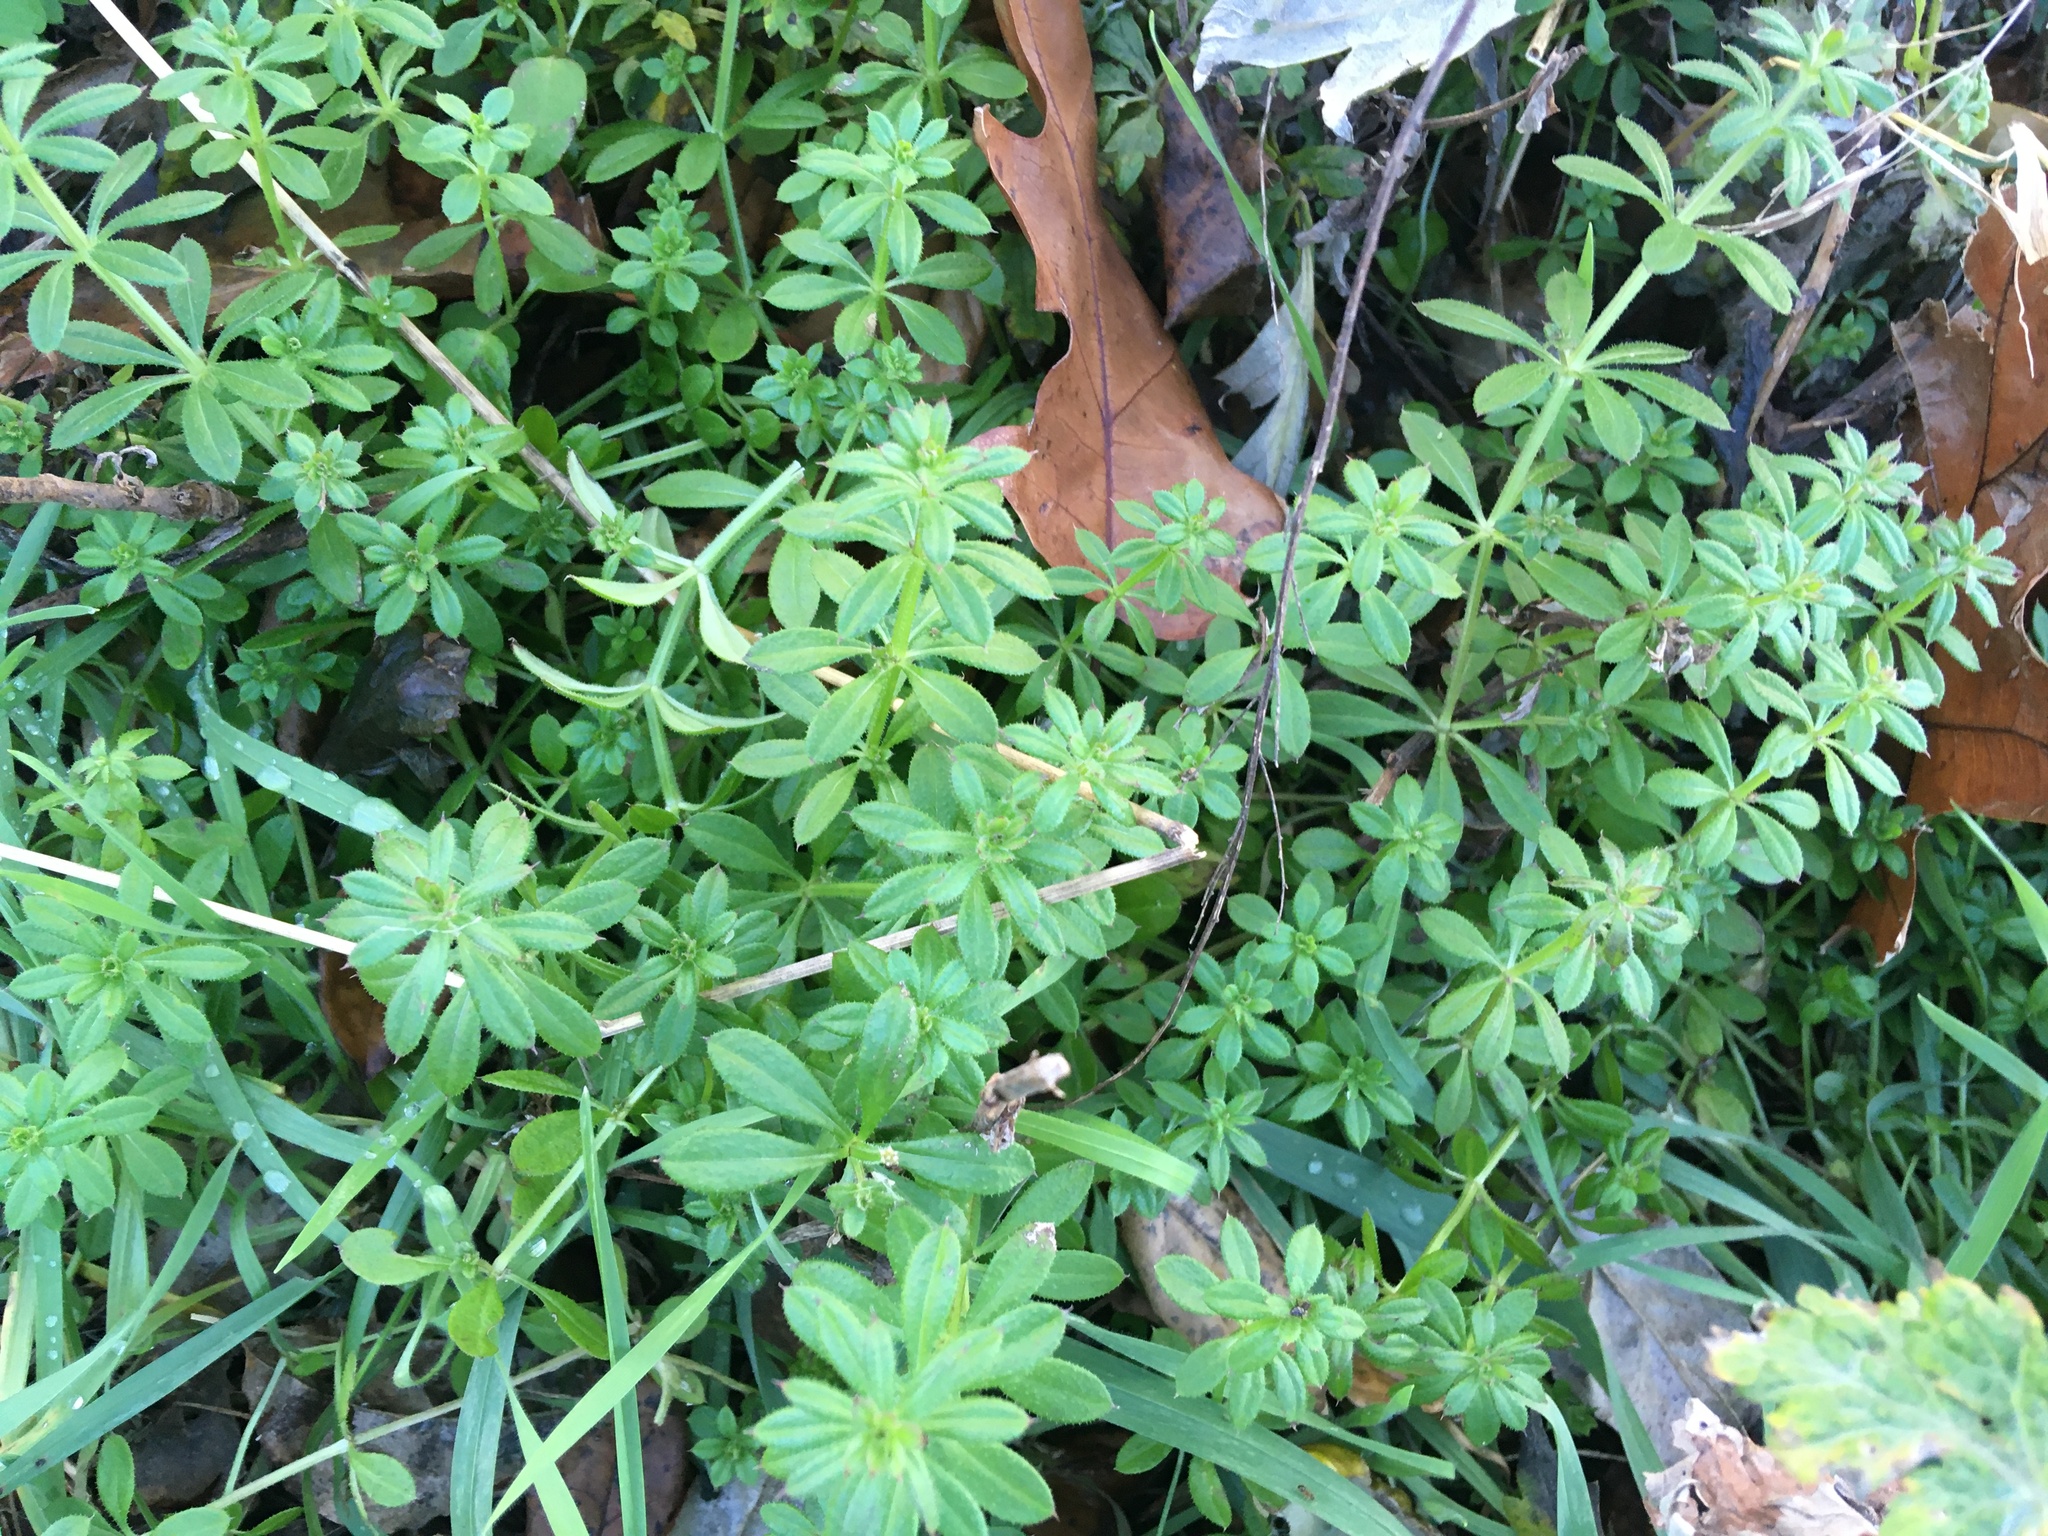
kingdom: Plantae
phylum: Tracheophyta
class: Magnoliopsida
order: Gentianales
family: Rubiaceae
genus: Galium
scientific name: Galium aparine
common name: Cleavers
